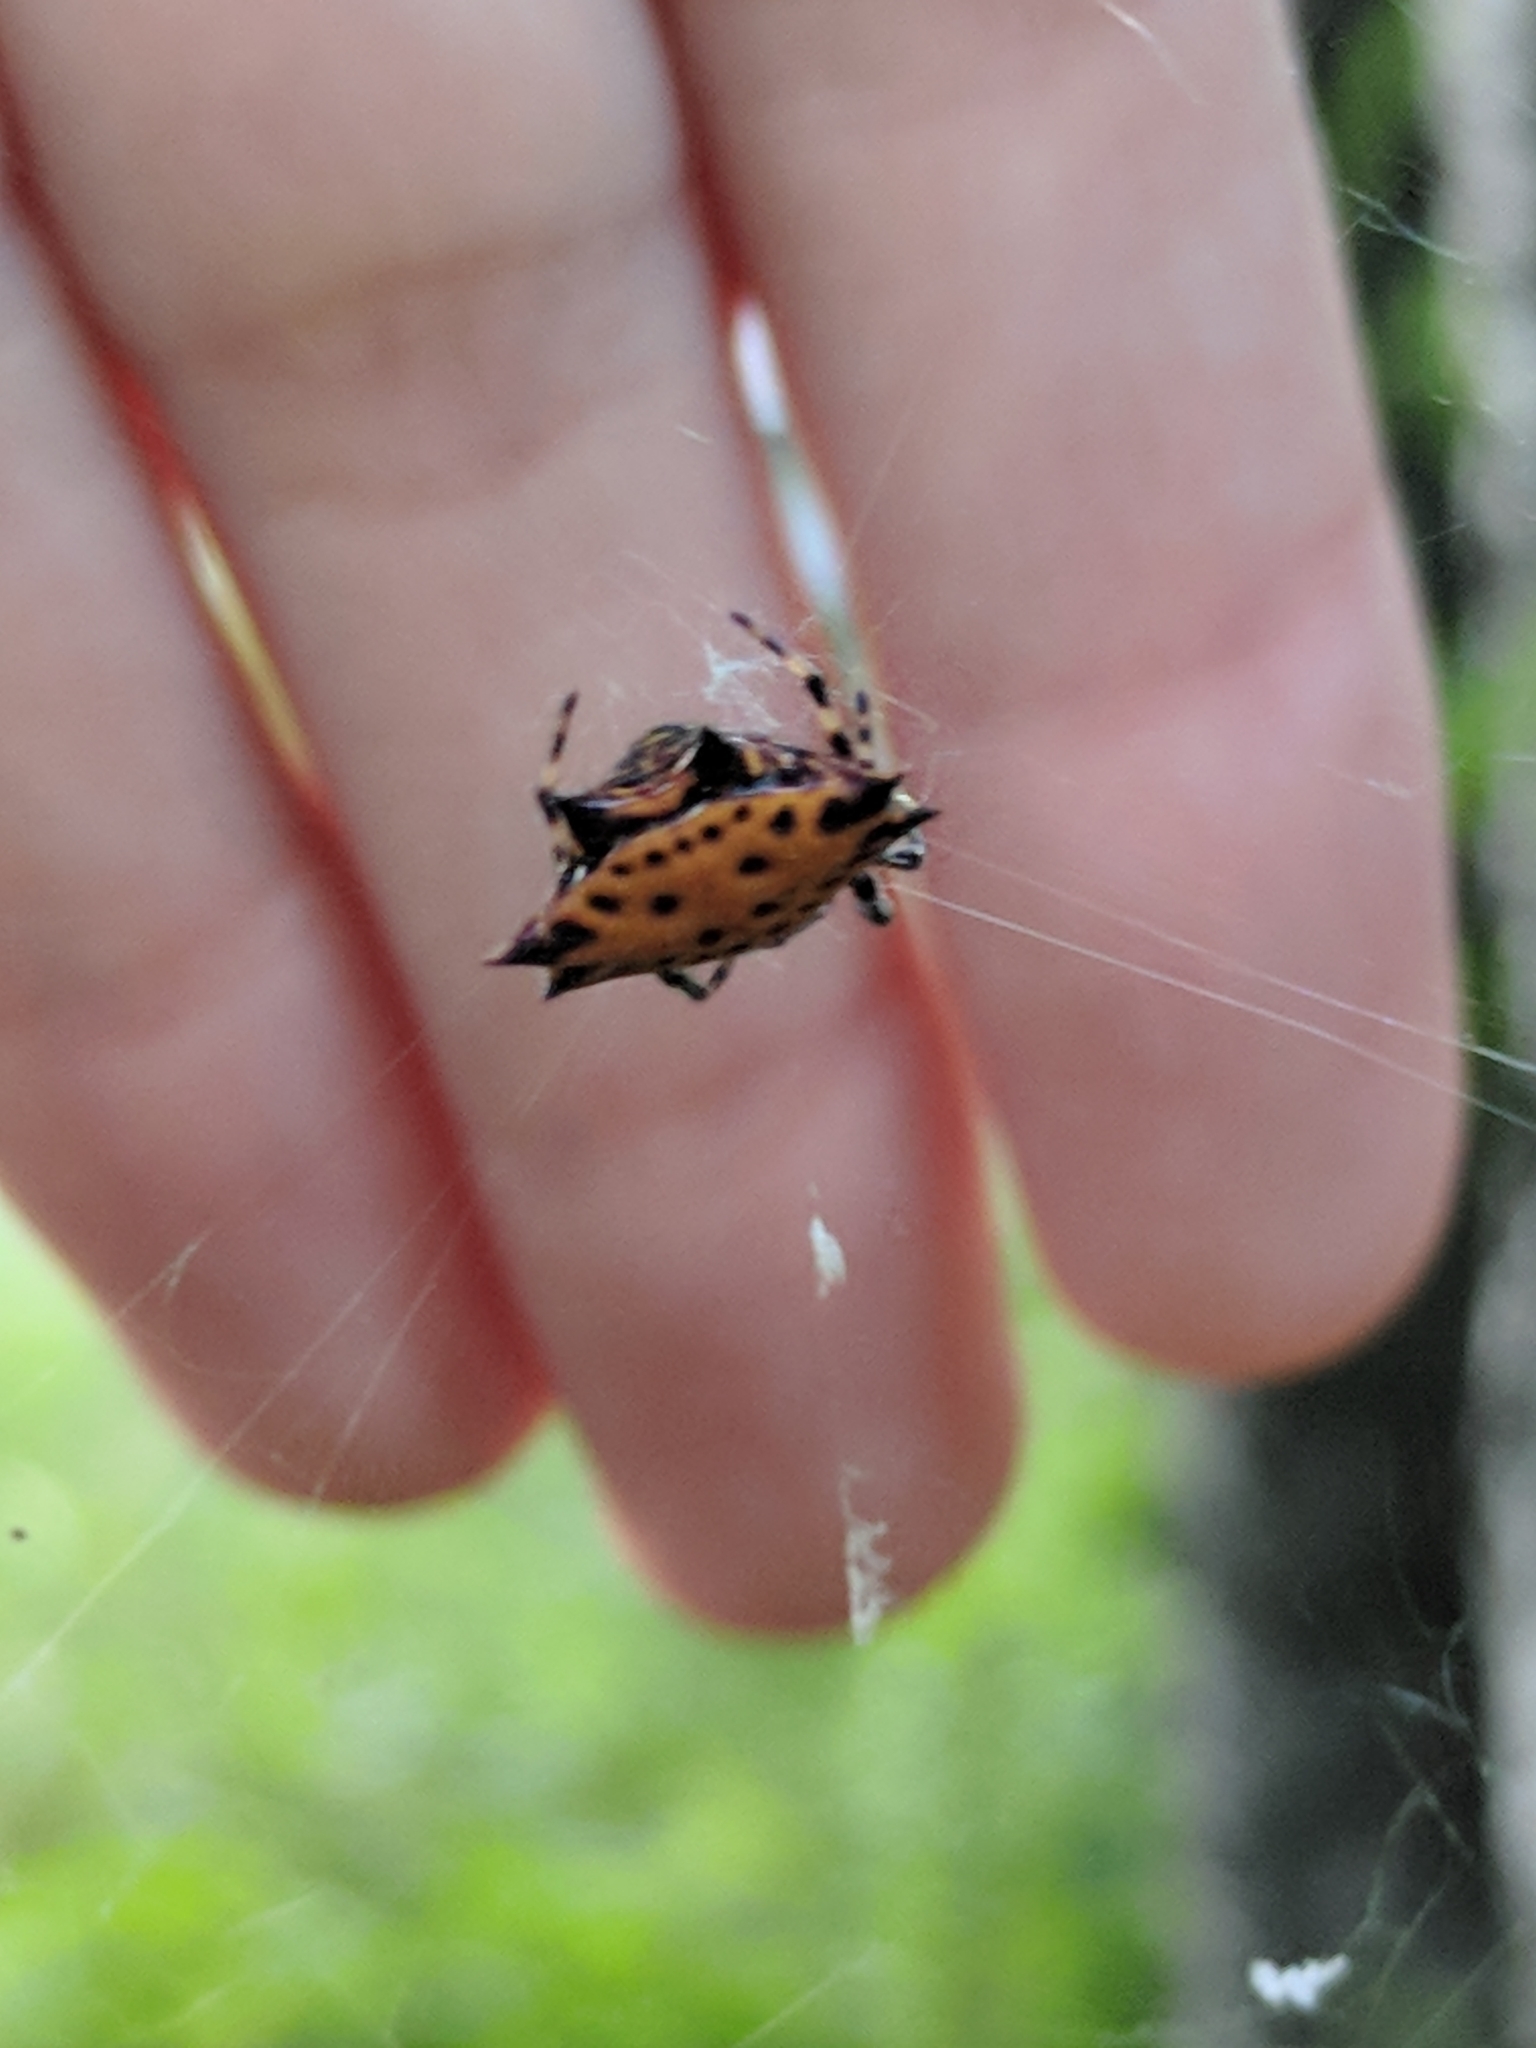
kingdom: Animalia
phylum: Arthropoda
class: Arachnida
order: Araneae
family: Araneidae
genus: Gasteracantha
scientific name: Gasteracantha cancriformis
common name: Orb weavers
